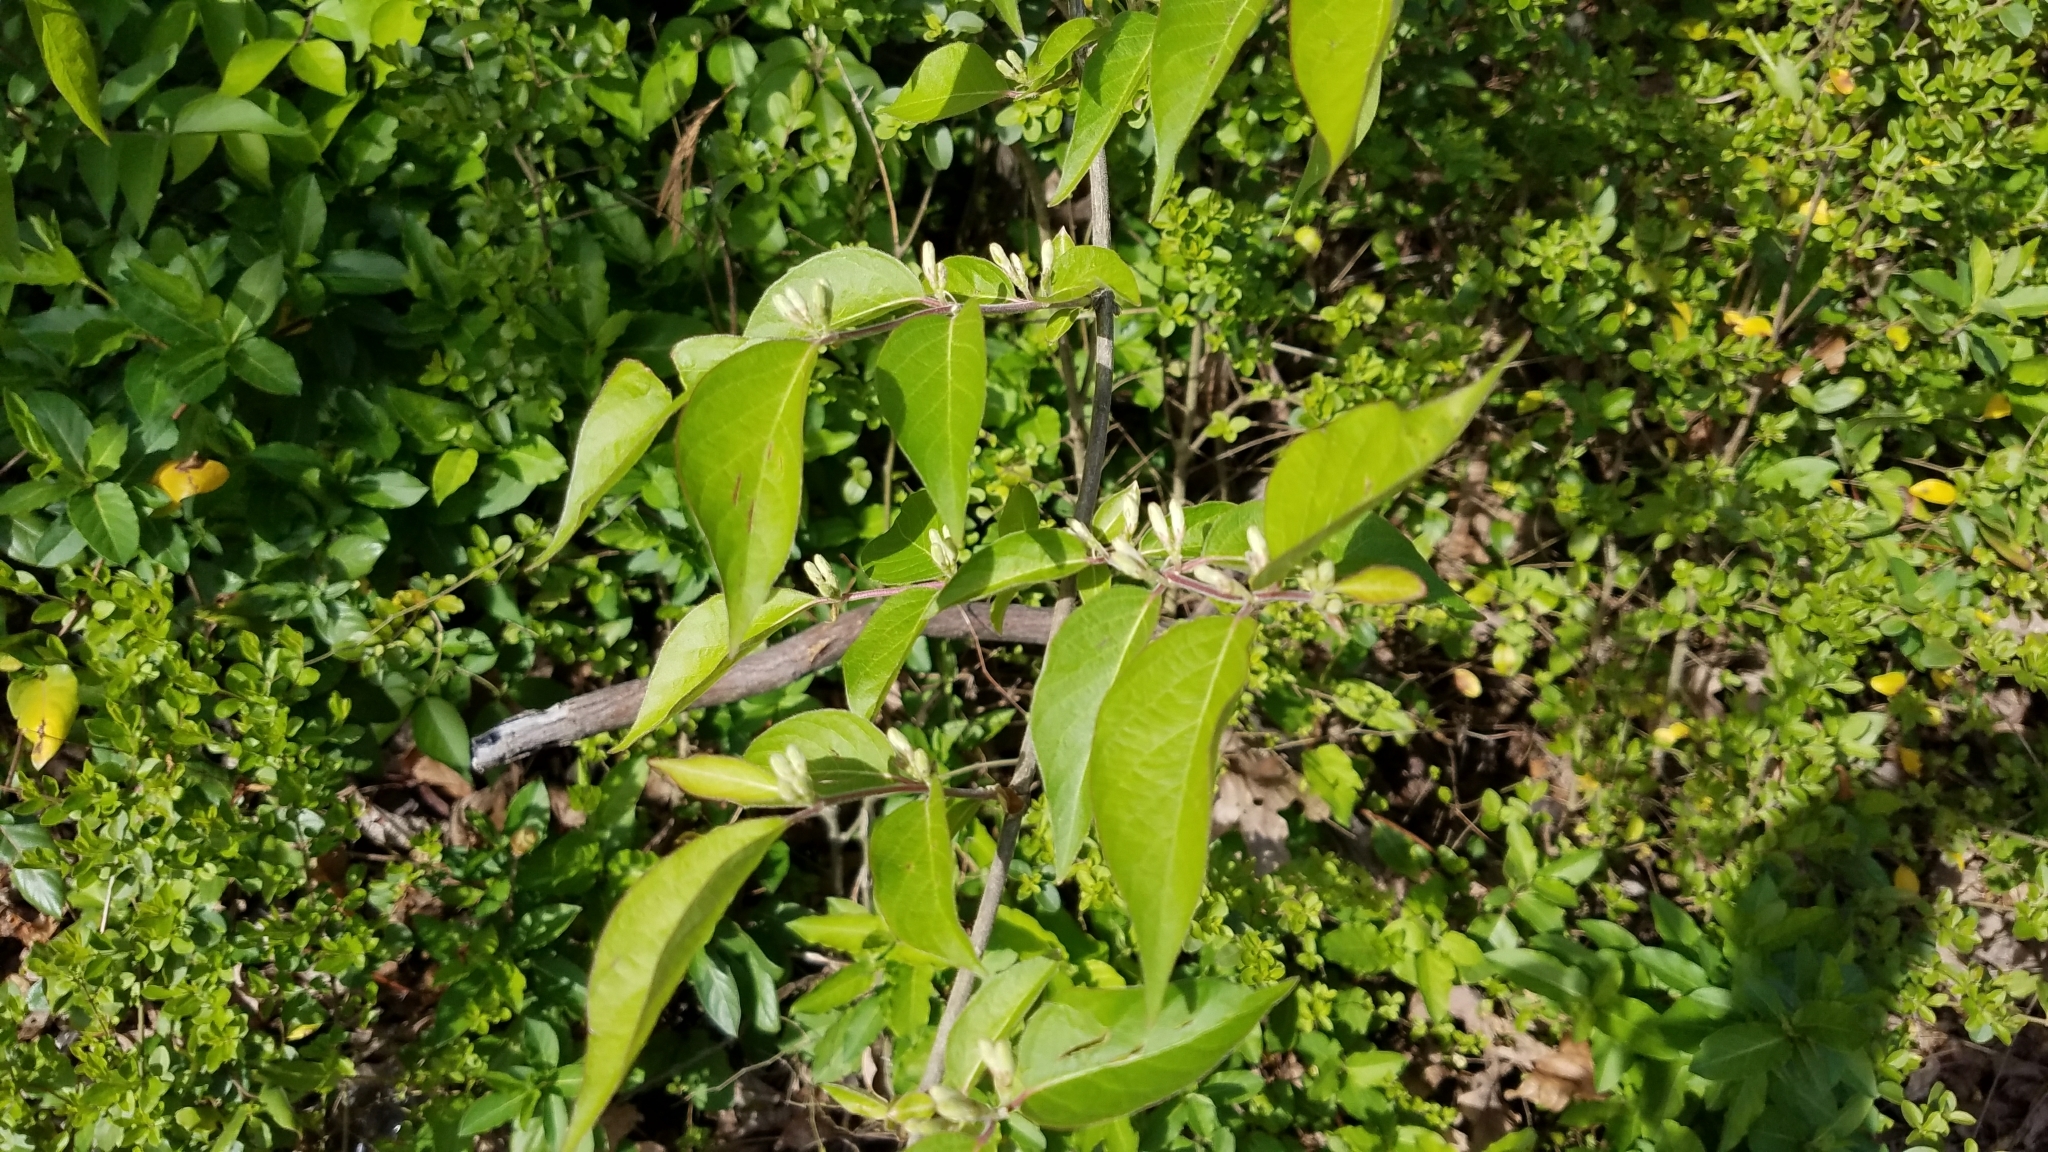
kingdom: Plantae
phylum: Tracheophyta
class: Magnoliopsida
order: Dipsacales
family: Caprifoliaceae
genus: Lonicera
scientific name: Lonicera maackii
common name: Amur honeysuckle
